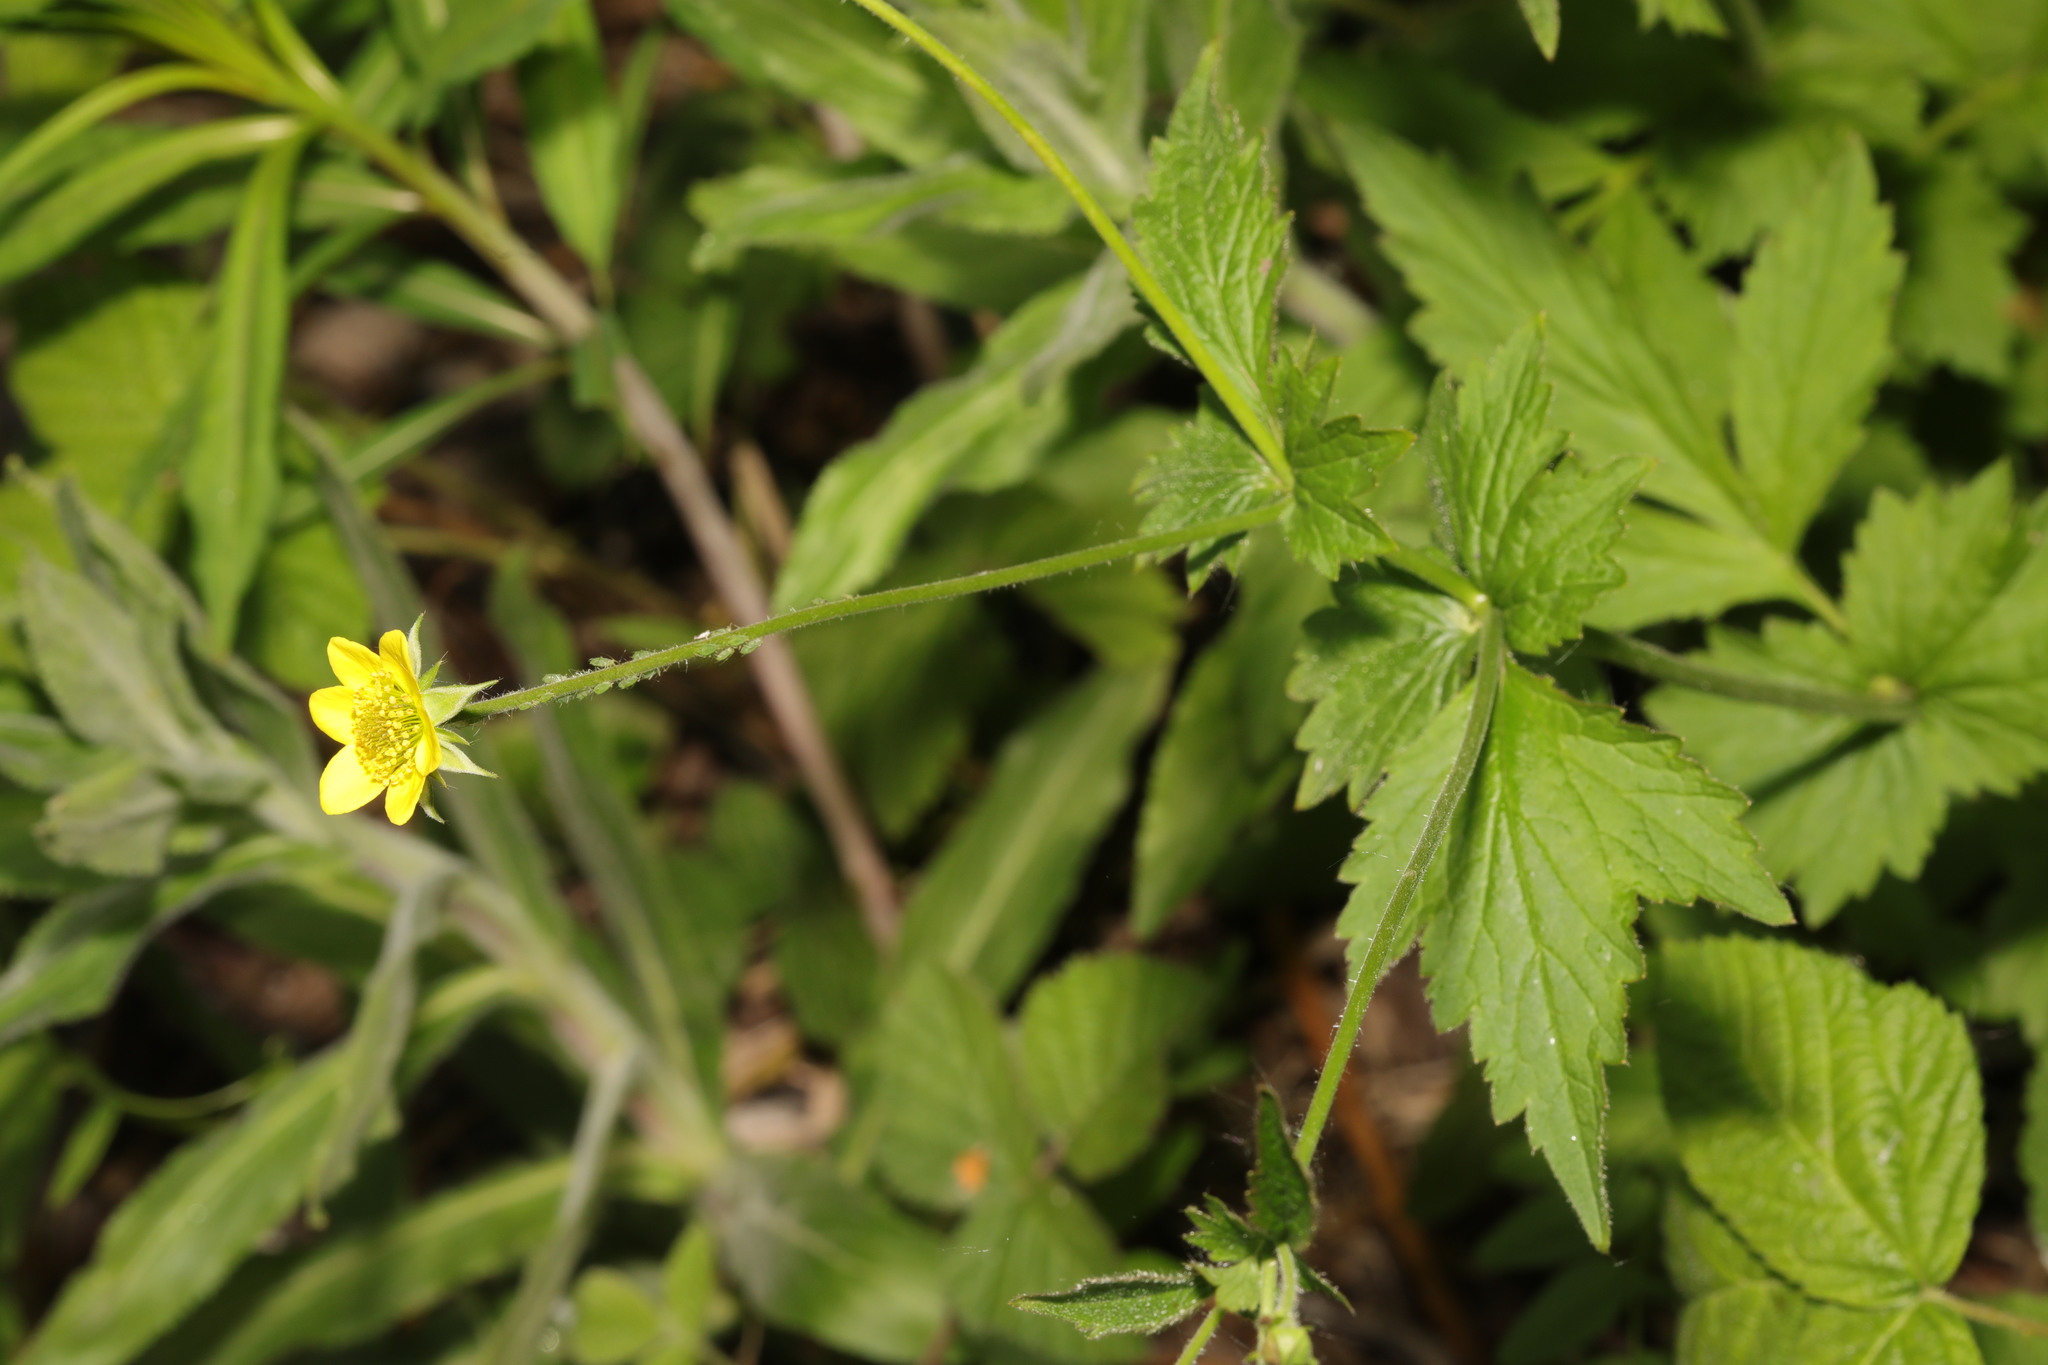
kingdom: Plantae
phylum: Tracheophyta
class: Magnoliopsida
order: Rosales
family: Rosaceae
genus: Geum
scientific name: Geum urbanum
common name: Wood avens
